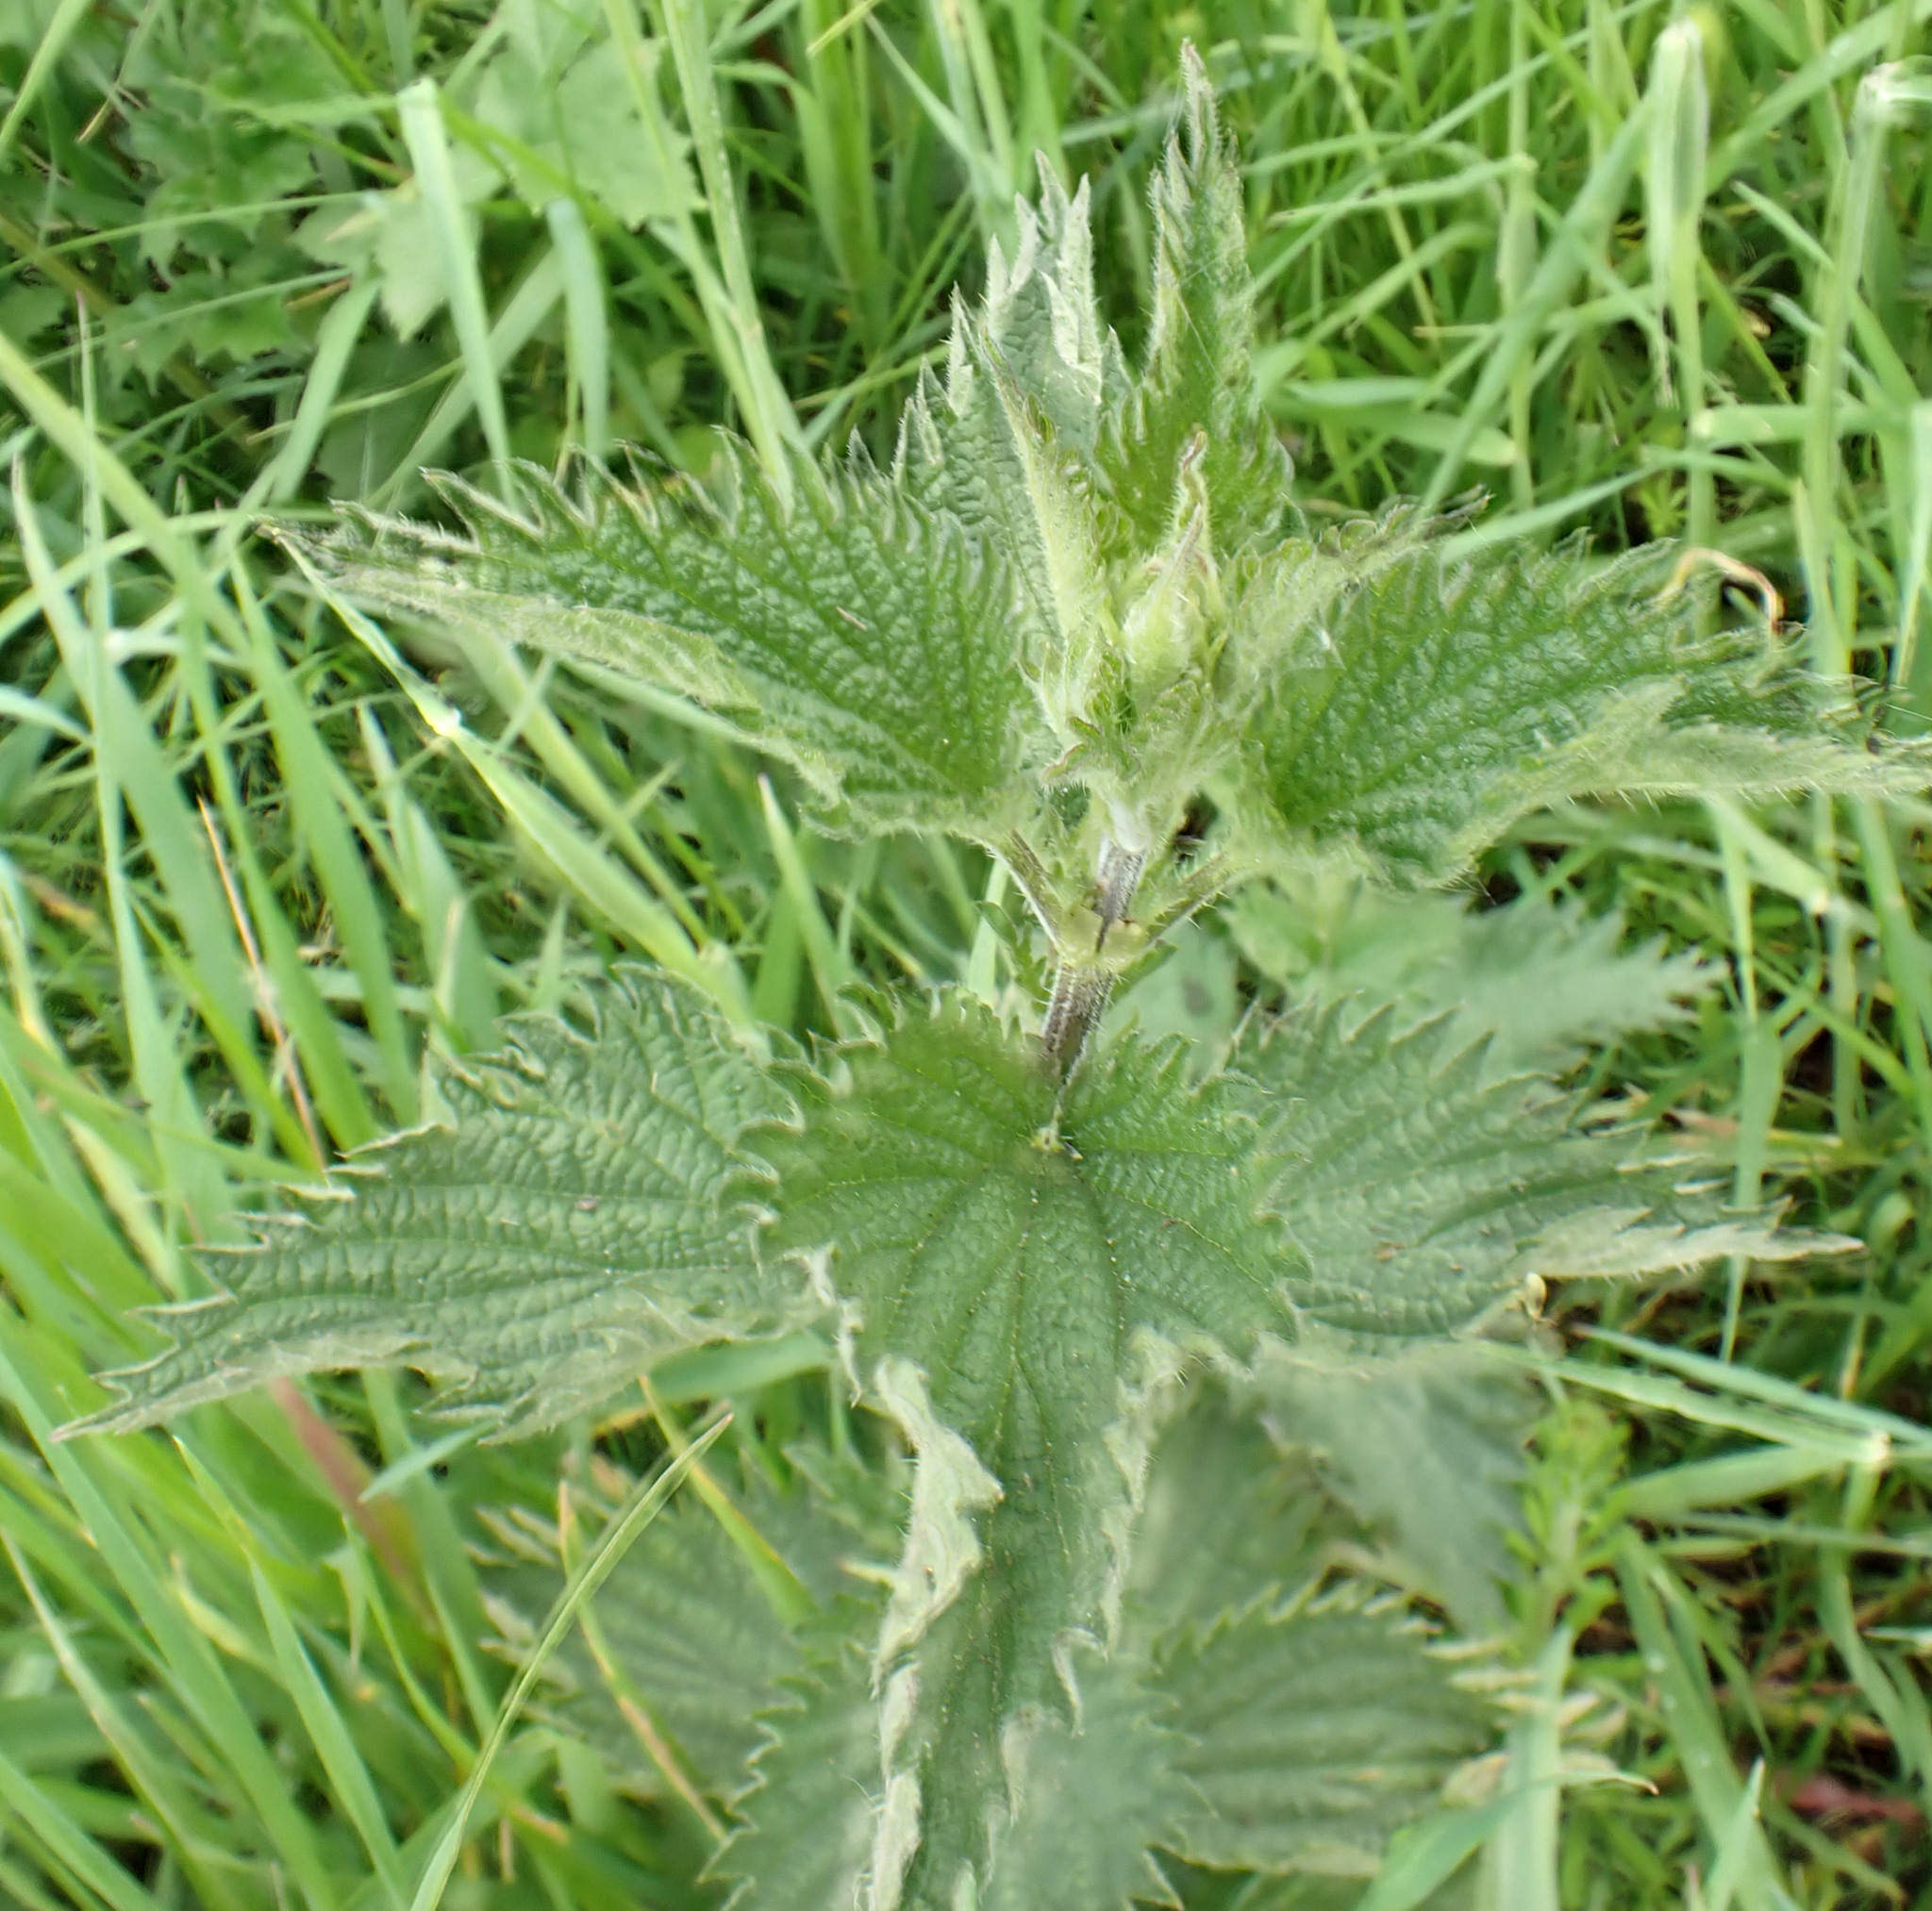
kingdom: Plantae
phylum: Tracheophyta
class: Magnoliopsida
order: Rosales
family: Urticaceae
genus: Urtica
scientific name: Urtica dioica
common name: Common nettle
